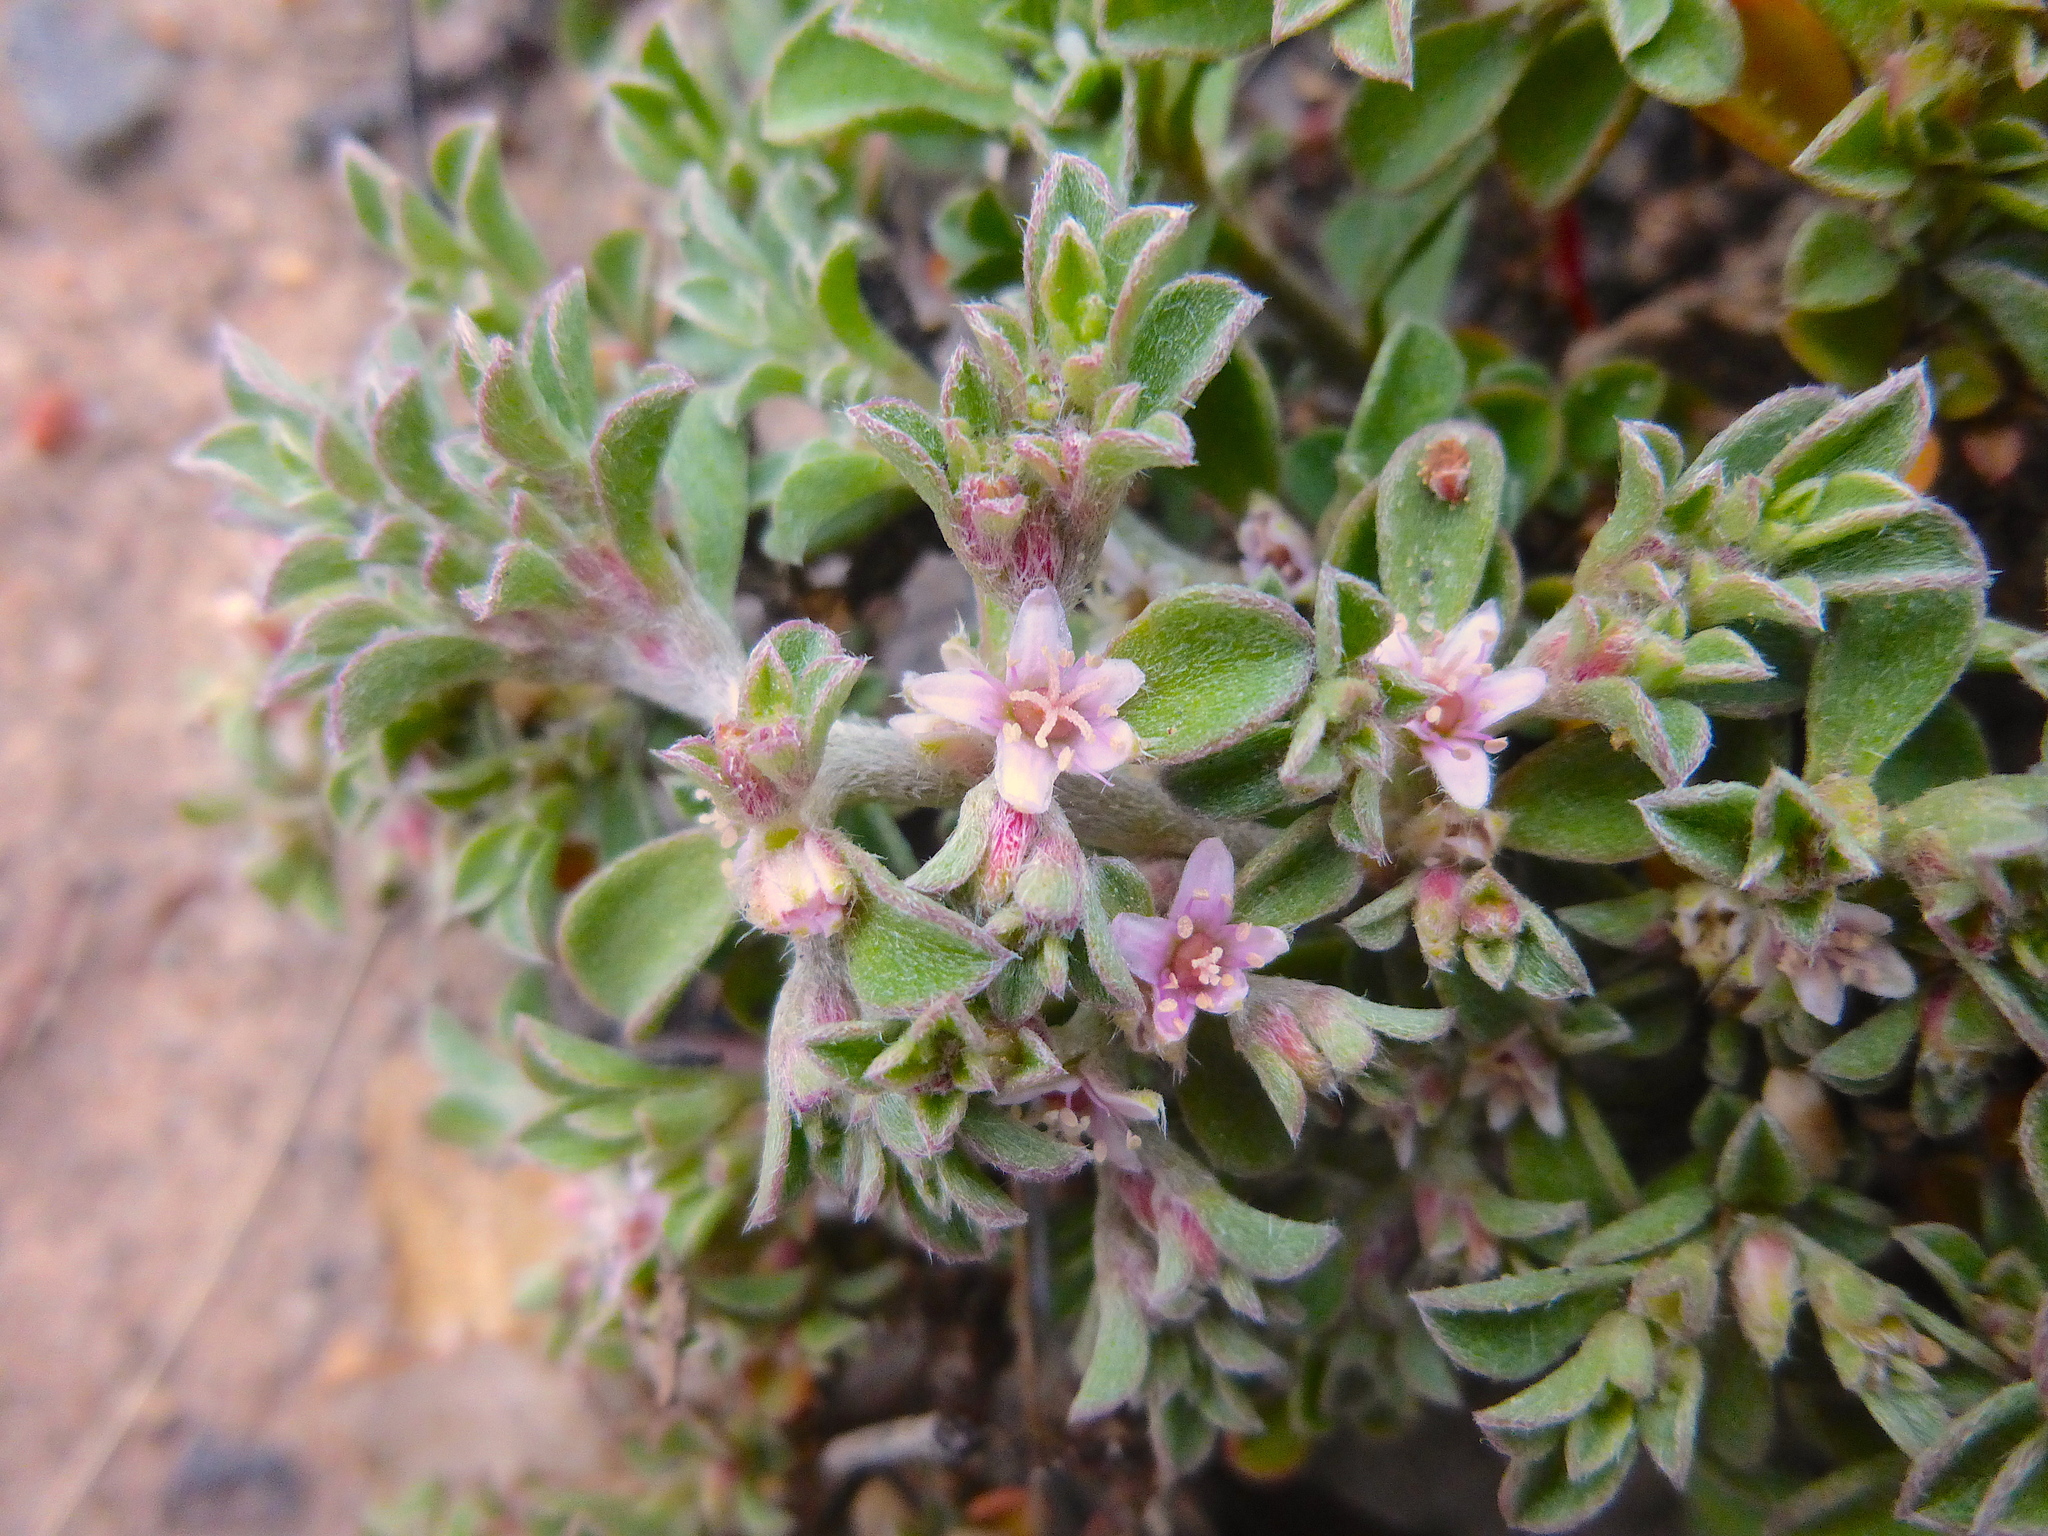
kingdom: Plantae
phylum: Tracheophyta
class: Magnoliopsida
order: Caryophyllales
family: Aizoaceae
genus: Aizoon
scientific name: Aizoon pubescens
